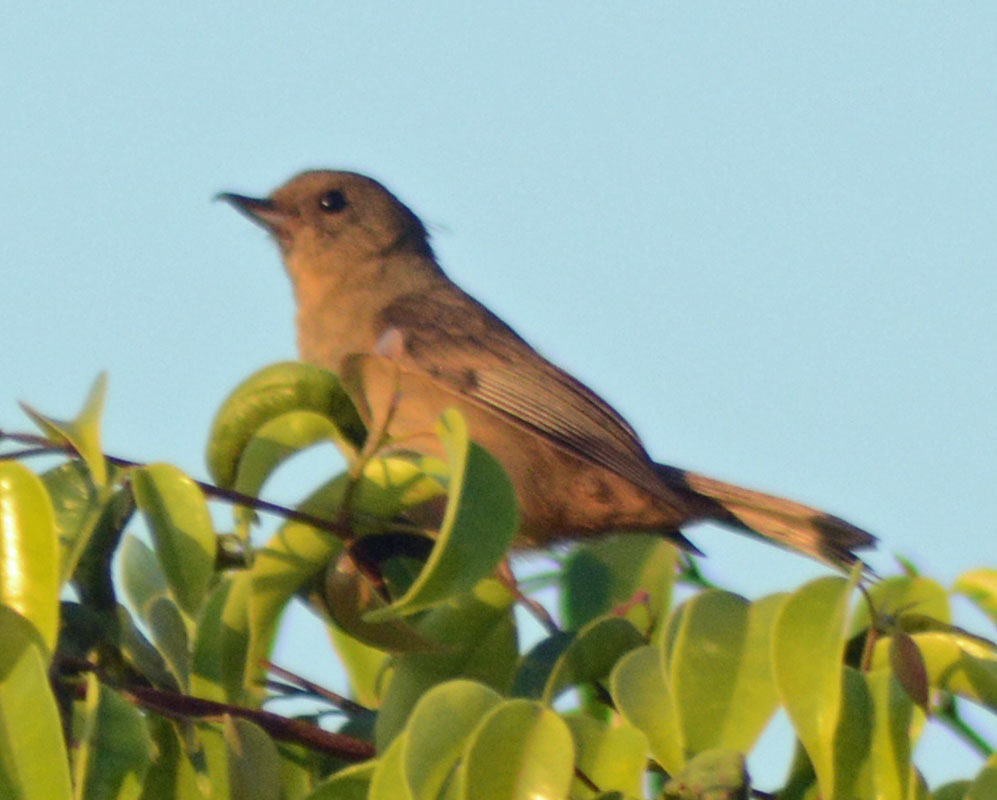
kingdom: Animalia
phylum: Chordata
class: Aves
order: Passeriformes
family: Thraupidae
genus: Diglossa
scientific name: Diglossa baritula
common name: Cinnamon-bellied flowerpiercer
